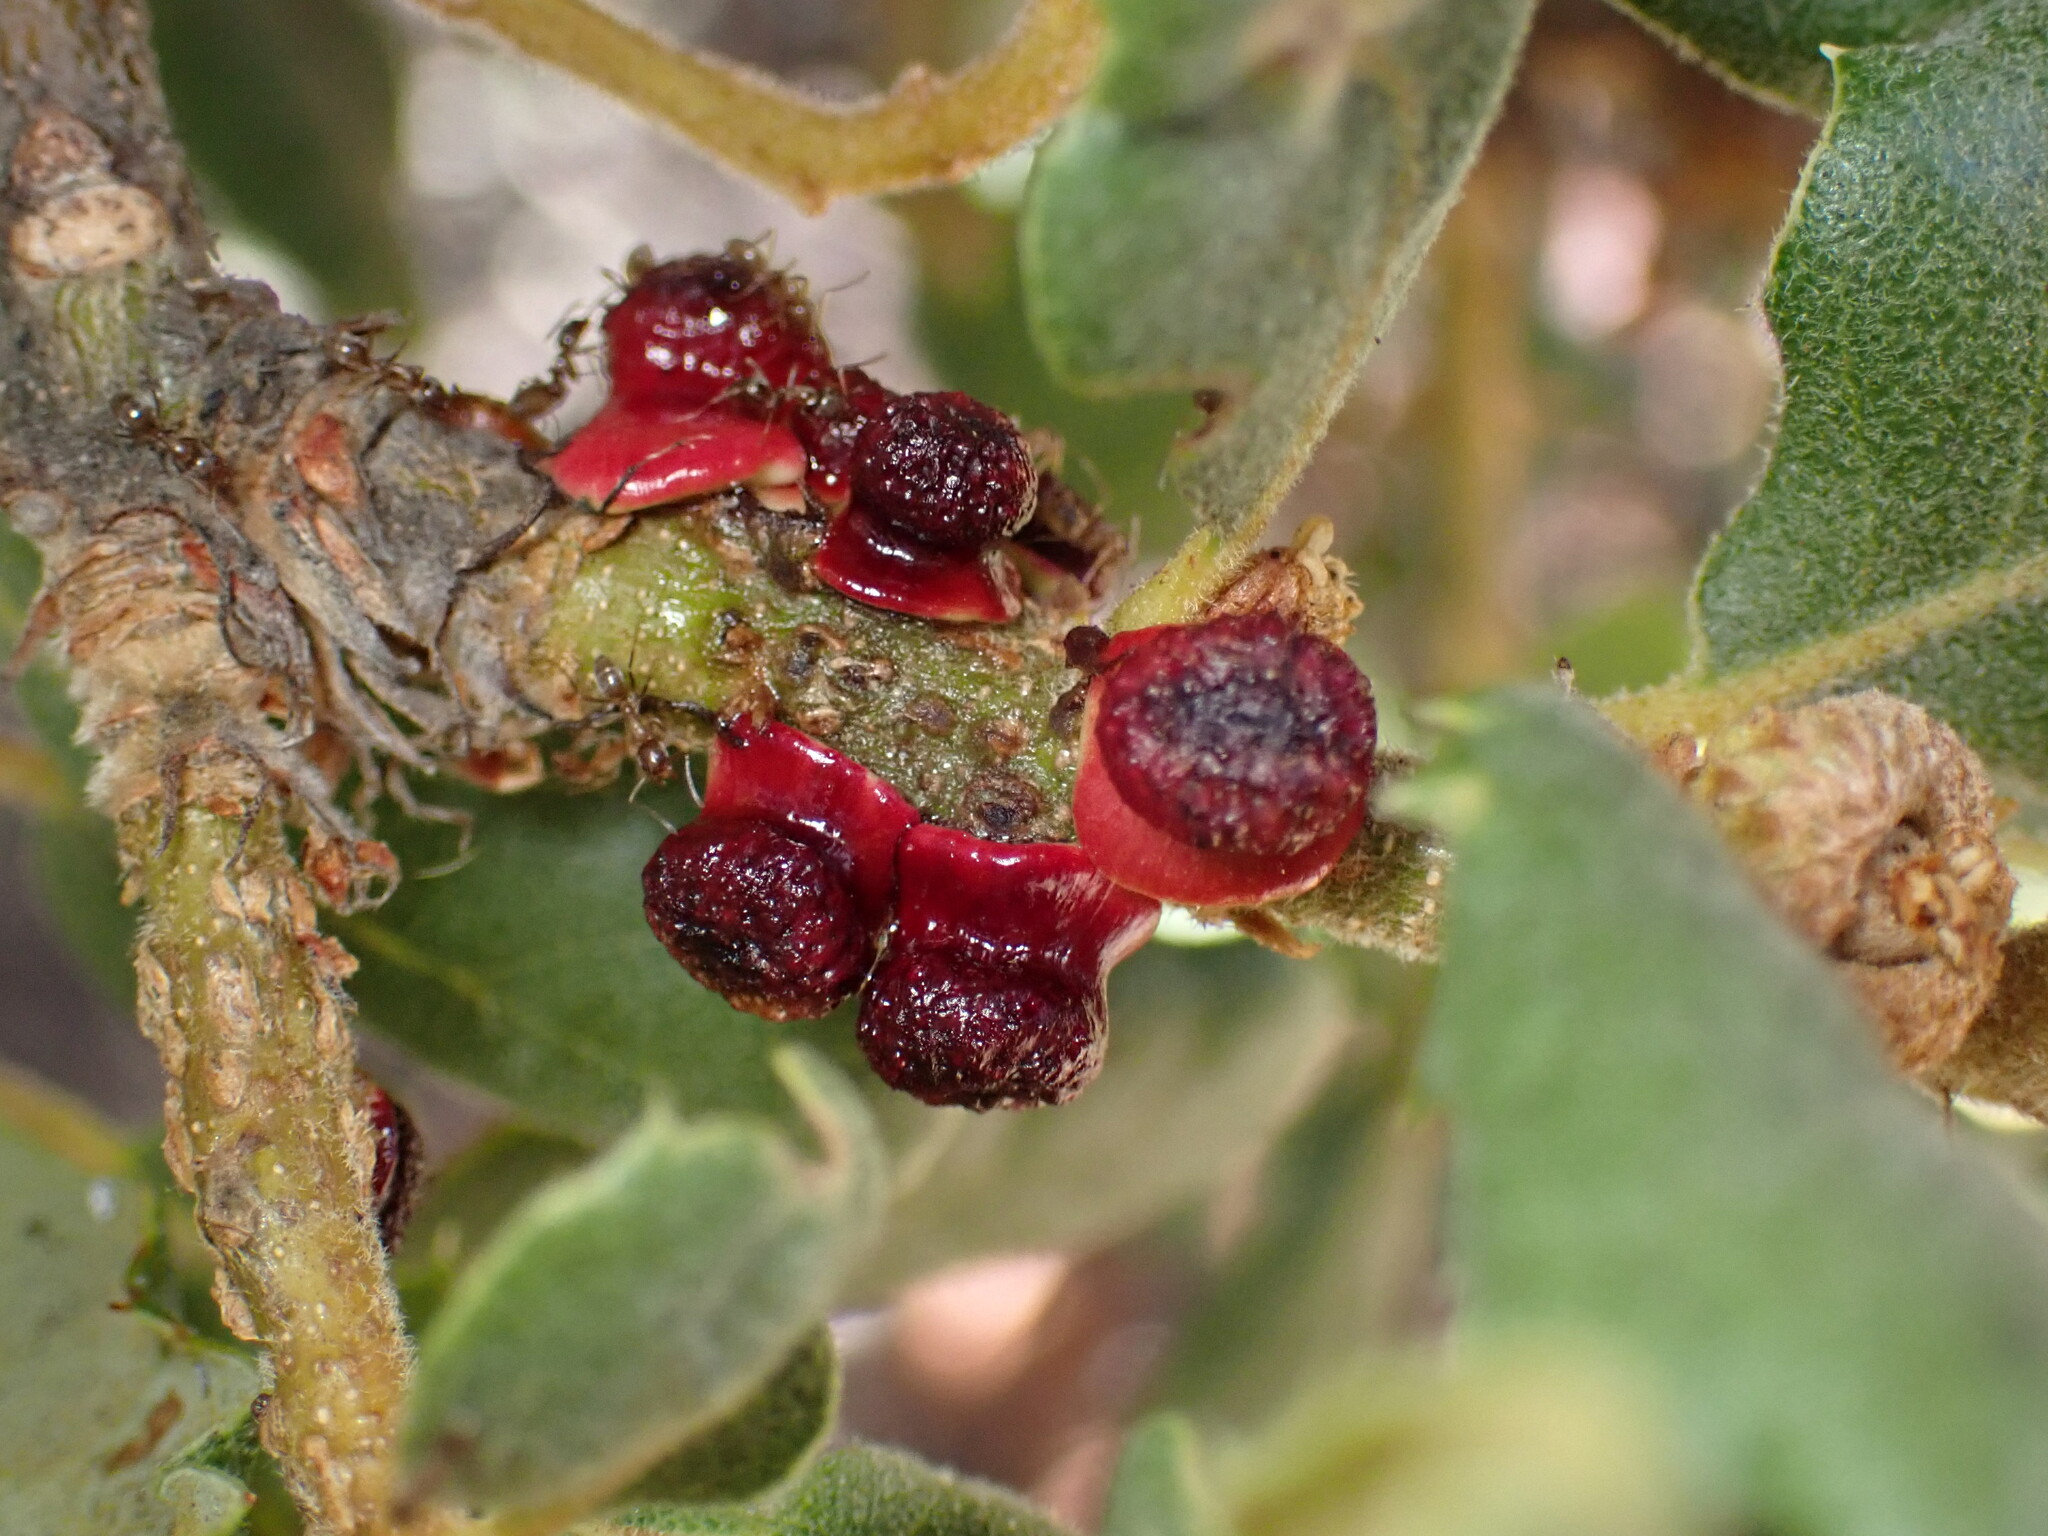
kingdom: Animalia
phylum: Arthropoda
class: Insecta
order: Hymenoptera
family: Cynipidae
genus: Disholcaspis
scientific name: Disholcaspis prehensa
